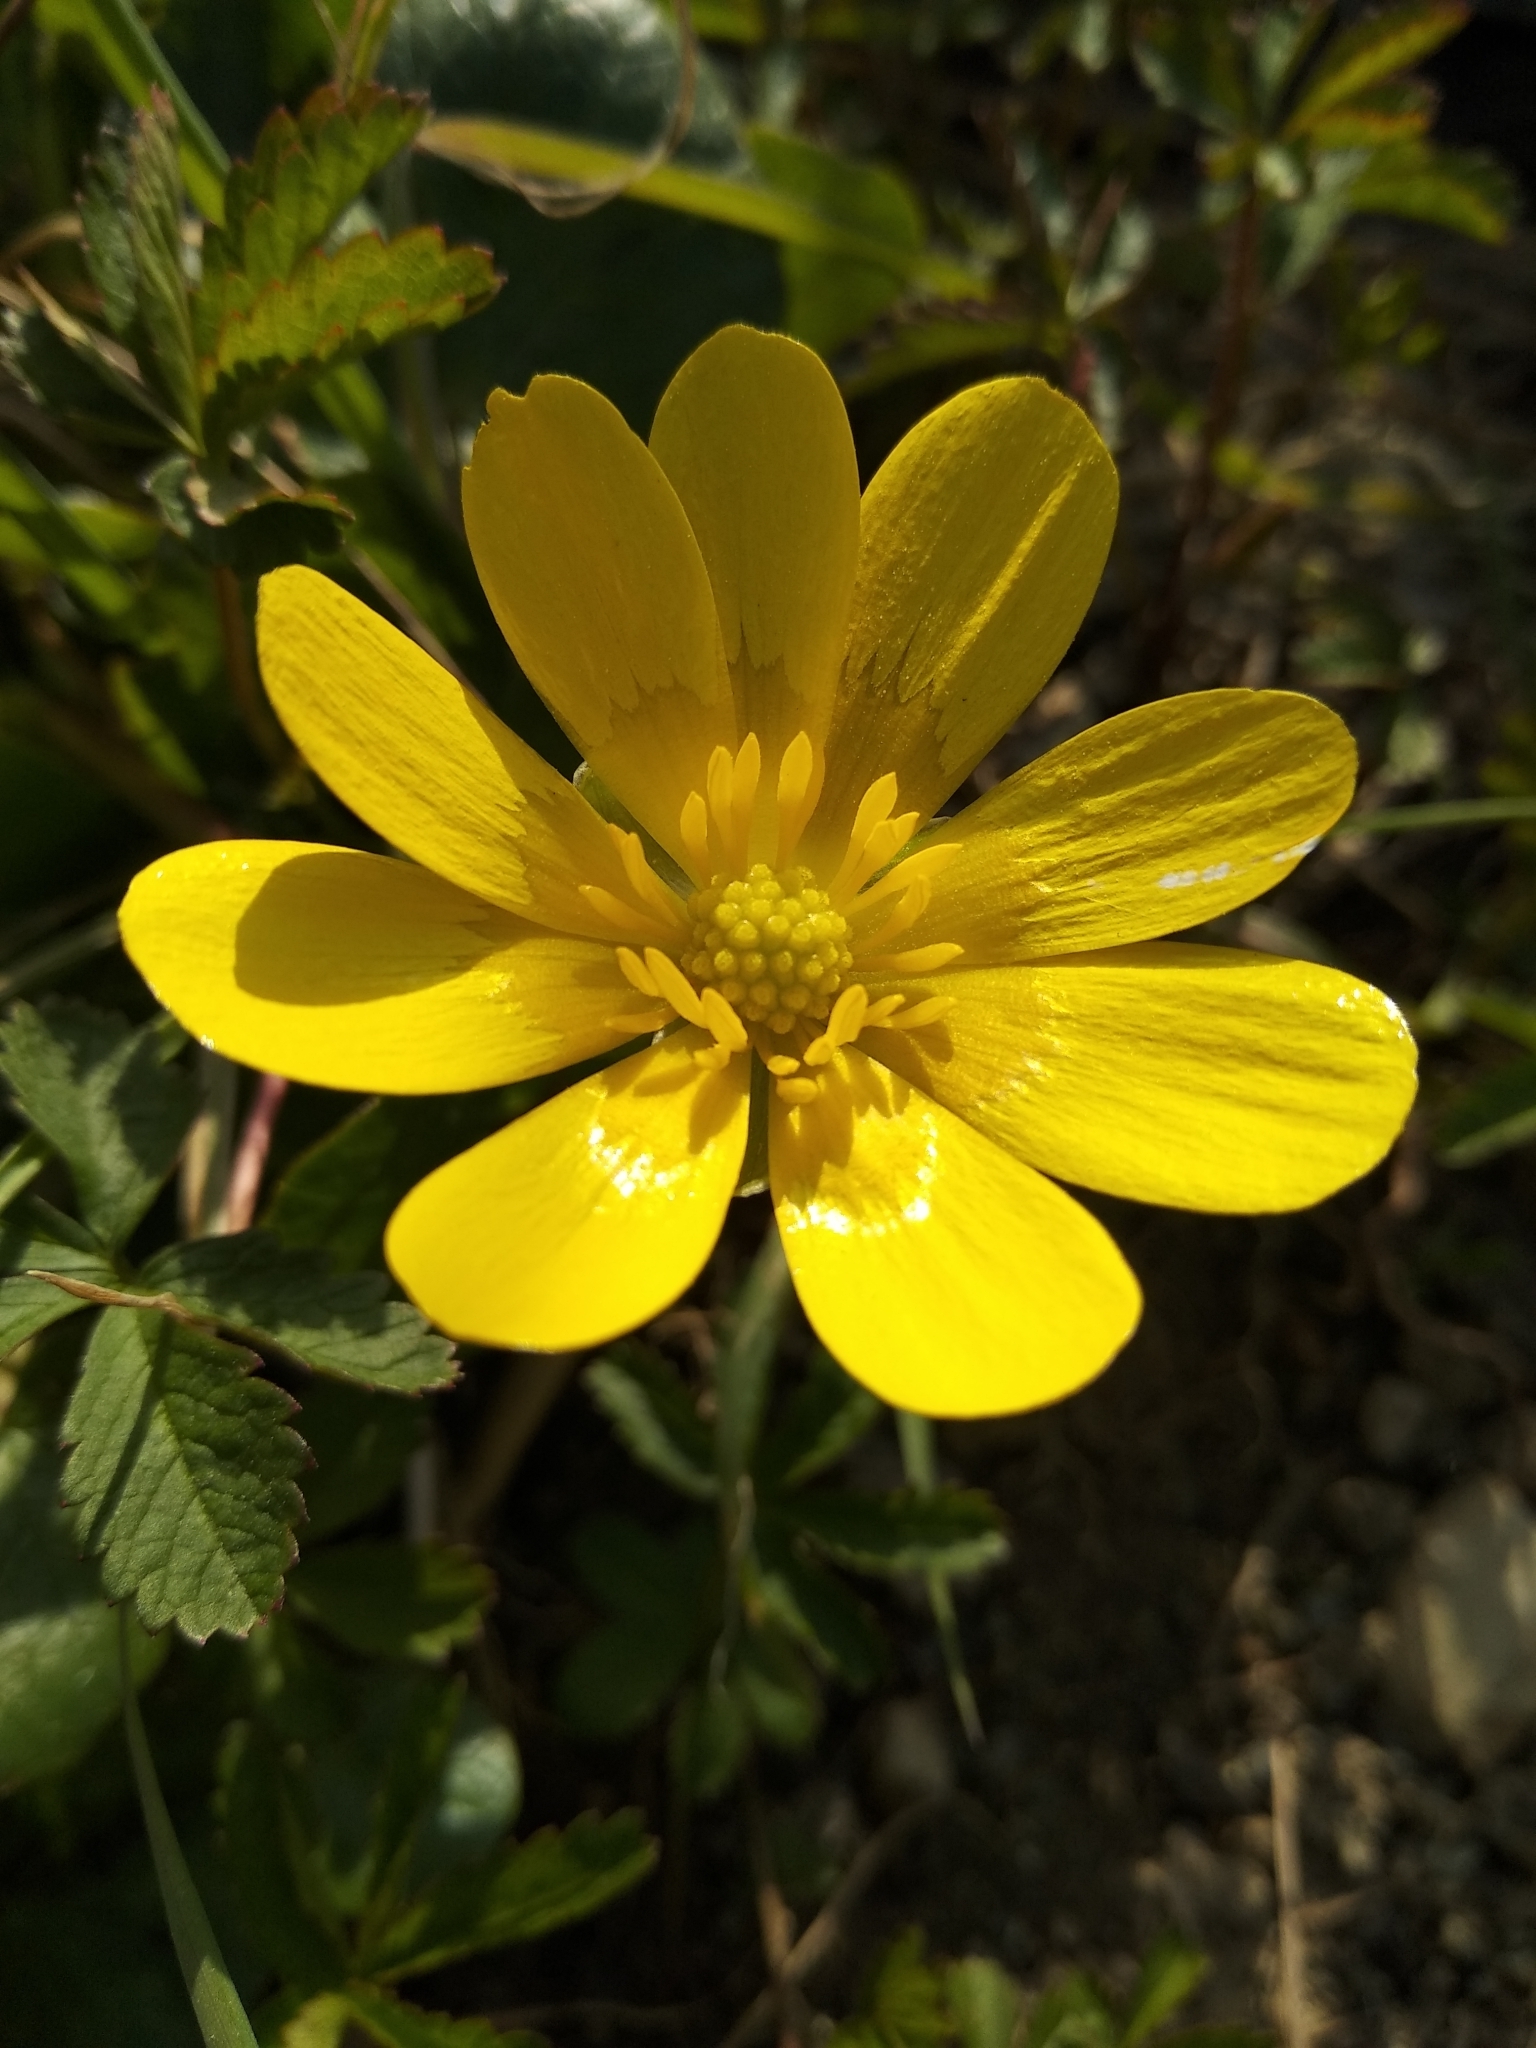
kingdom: Plantae
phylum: Tracheophyta
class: Magnoliopsida
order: Ranunculales
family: Ranunculaceae
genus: Ficaria
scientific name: Ficaria verna
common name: Lesser celandine
